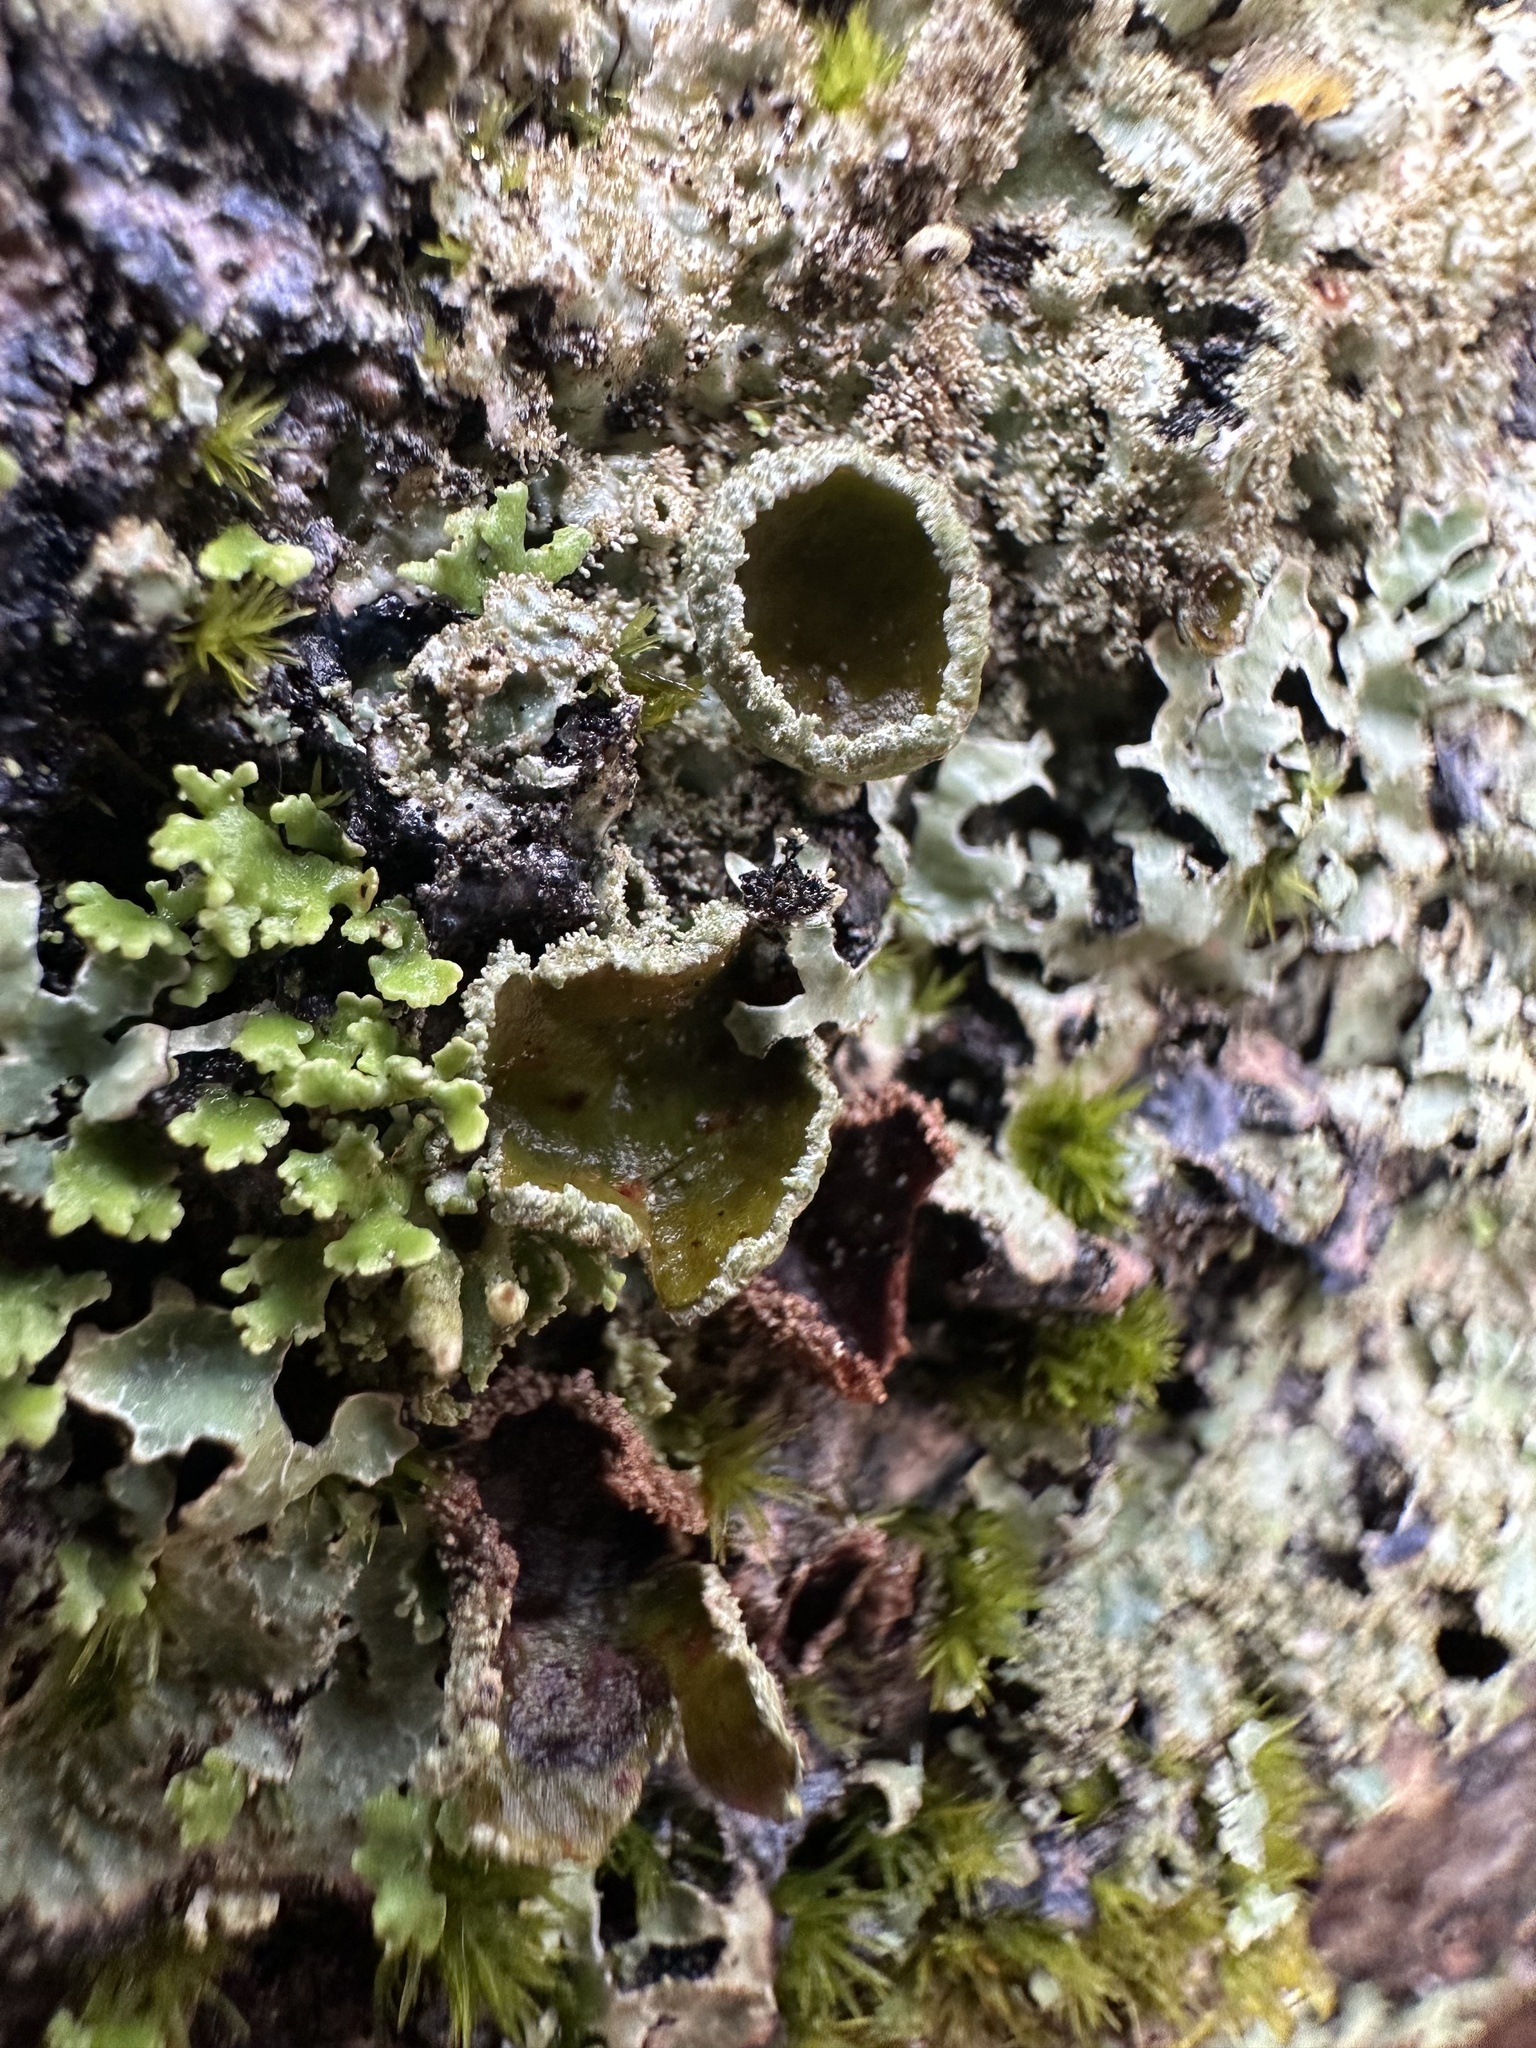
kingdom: Fungi
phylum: Ascomycota
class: Lecanoromycetes
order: Lecanorales
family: Parmeliaceae
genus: Parmelia
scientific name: Parmelia squarrosa
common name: Bottle brush shield lichen
